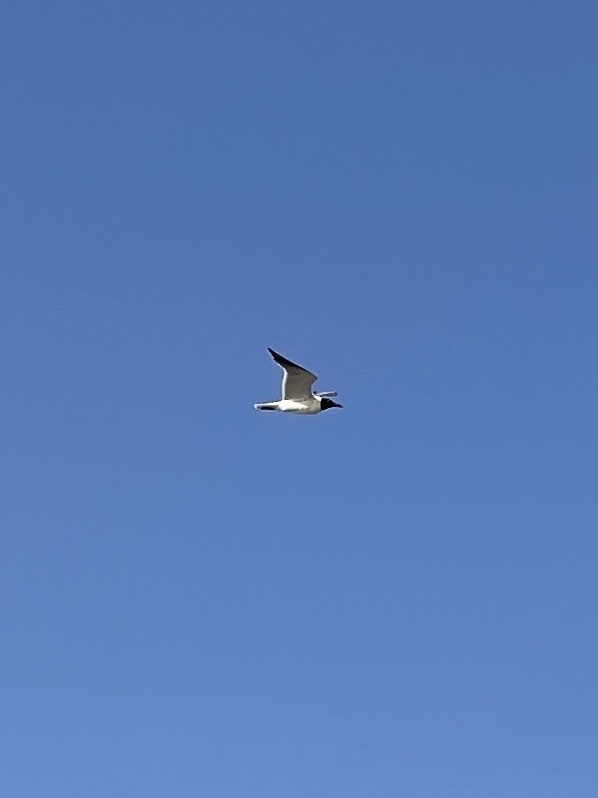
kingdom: Animalia
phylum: Chordata
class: Aves
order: Charadriiformes
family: Laridae
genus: Leucophaeus
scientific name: Leucophaeus atricilla
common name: Laughing gull
